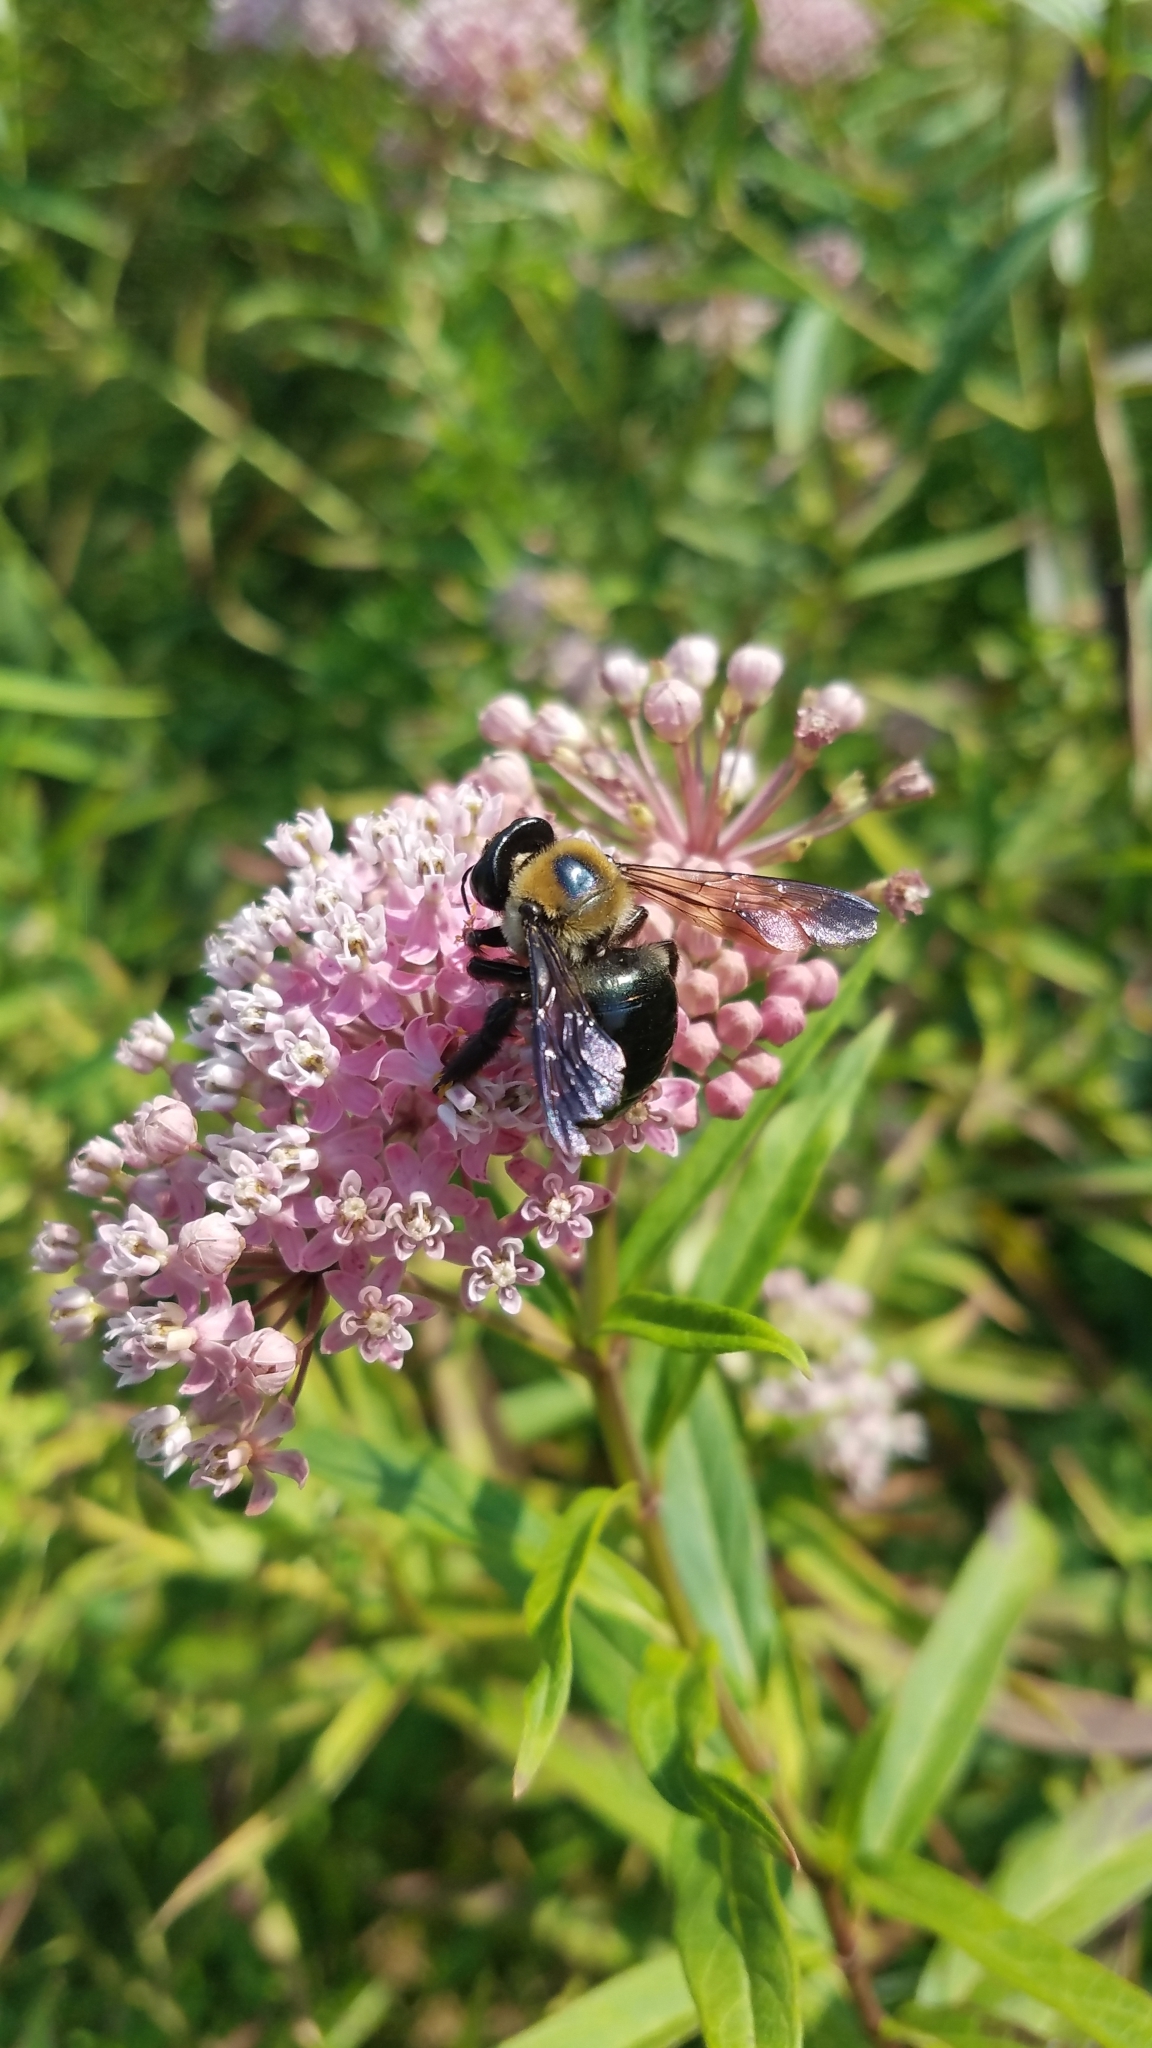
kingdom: Animalia
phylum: Arthropoda
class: Insecta
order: Hymenoptera
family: Apidae
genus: Xylocopa
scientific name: Xylocopa virginica
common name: Carpenter bee
